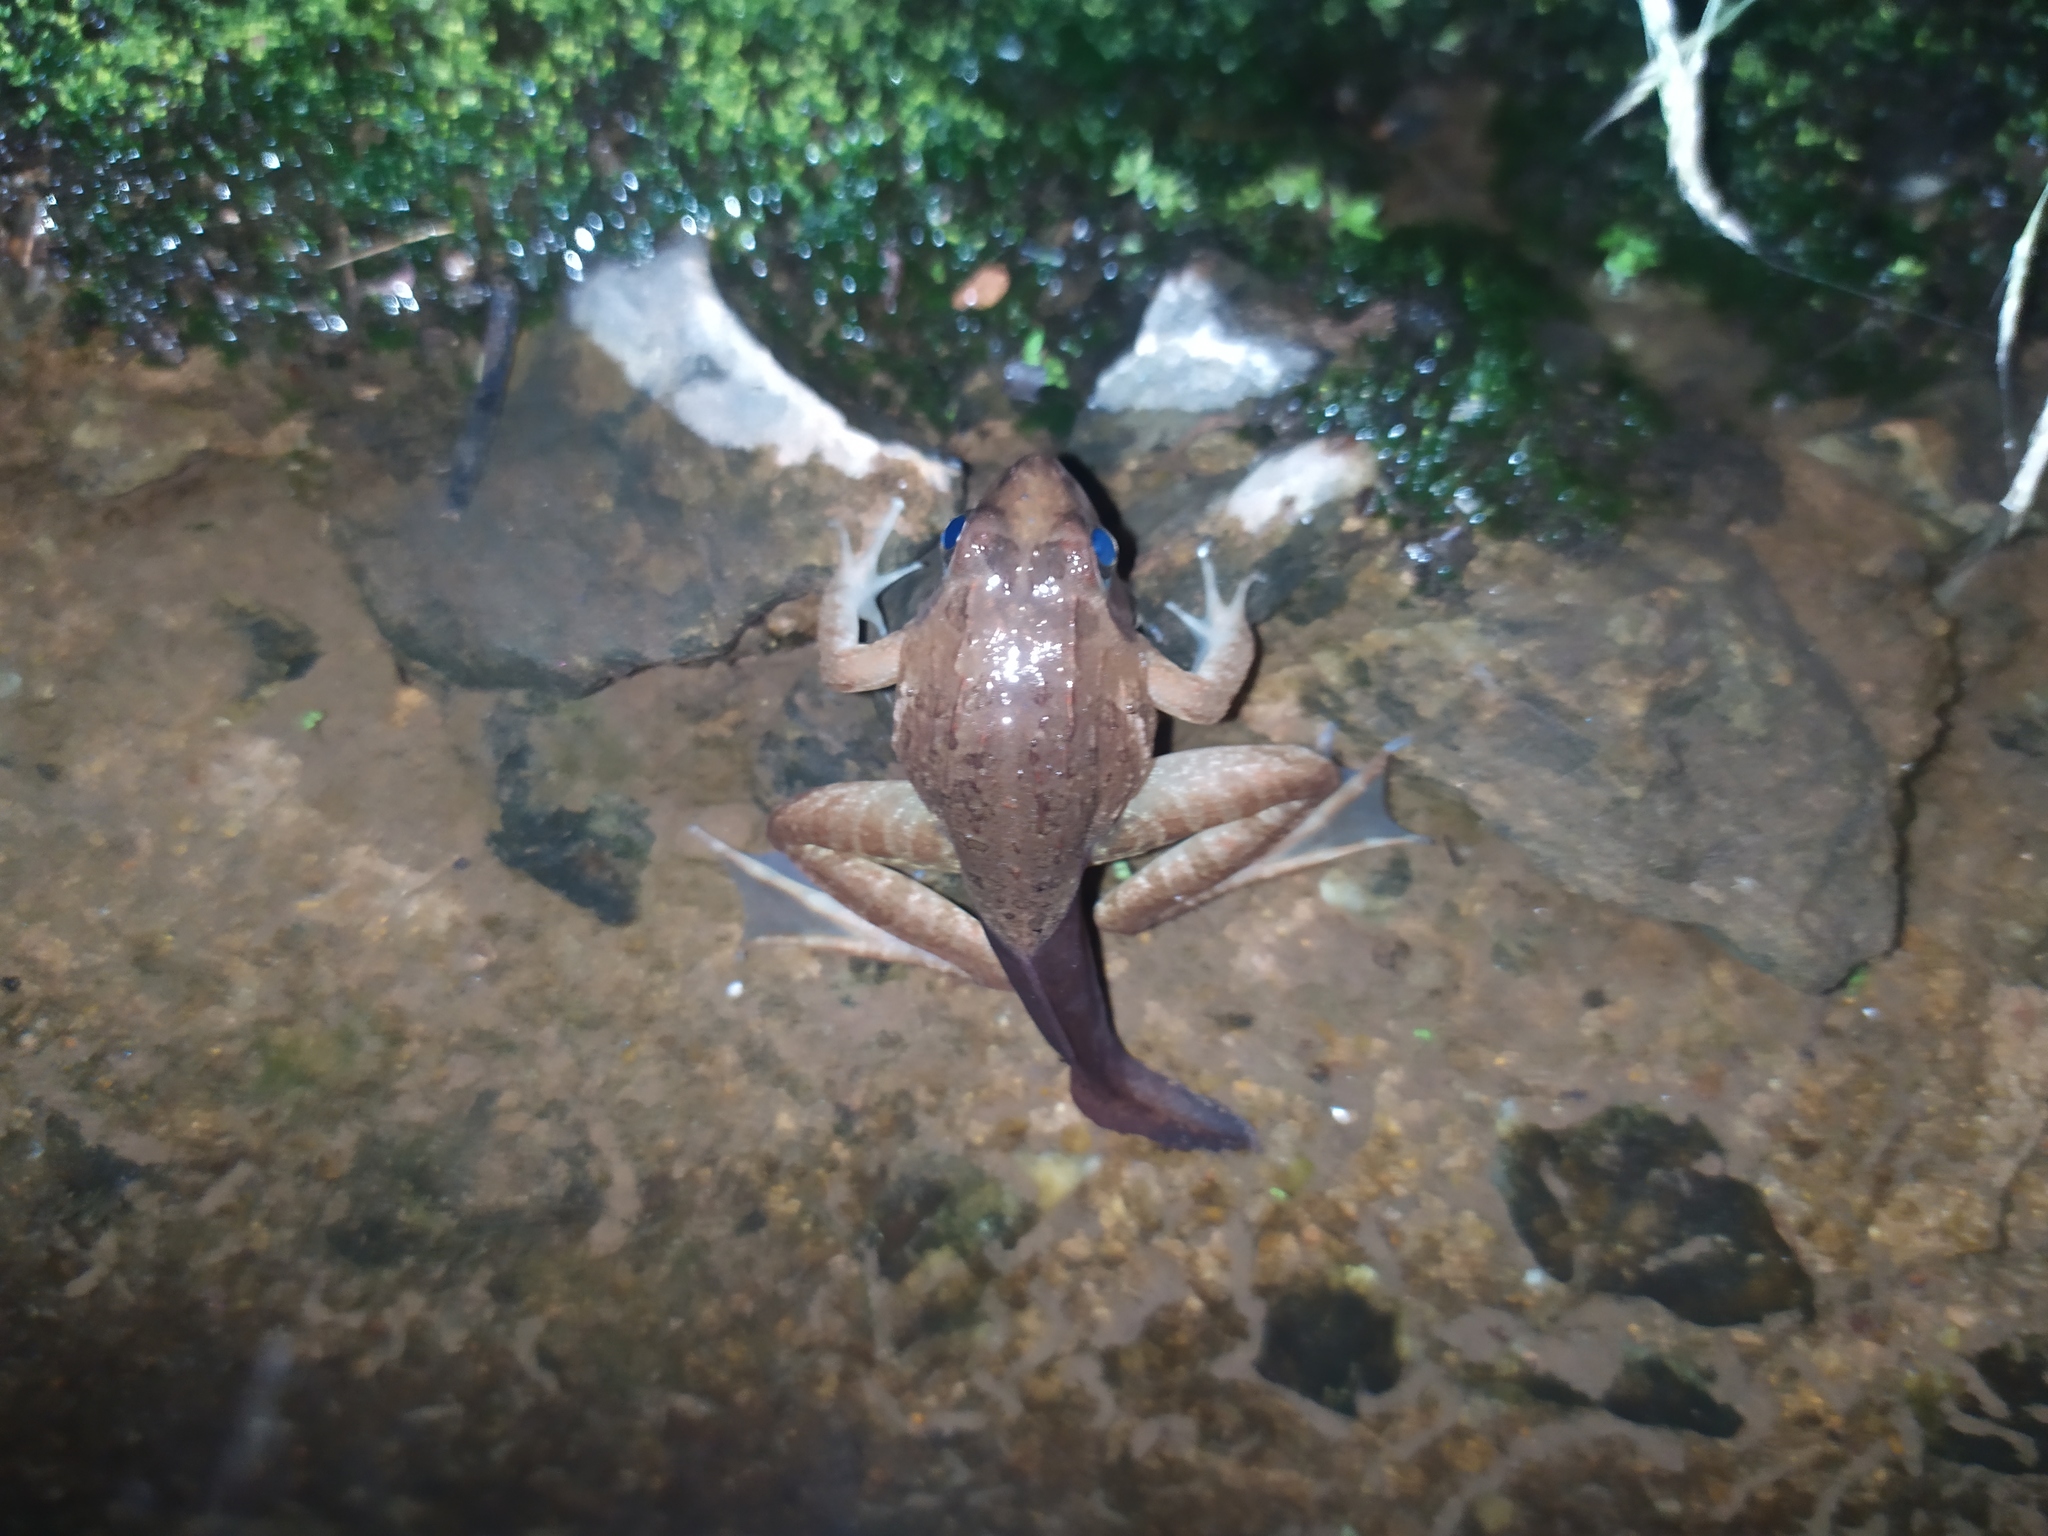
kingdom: Animalia
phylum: Chordata
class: Amphibia
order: Anura
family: Pyxicephalidae
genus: Amietia
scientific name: Amietia delalandii
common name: Delalande's river frog
